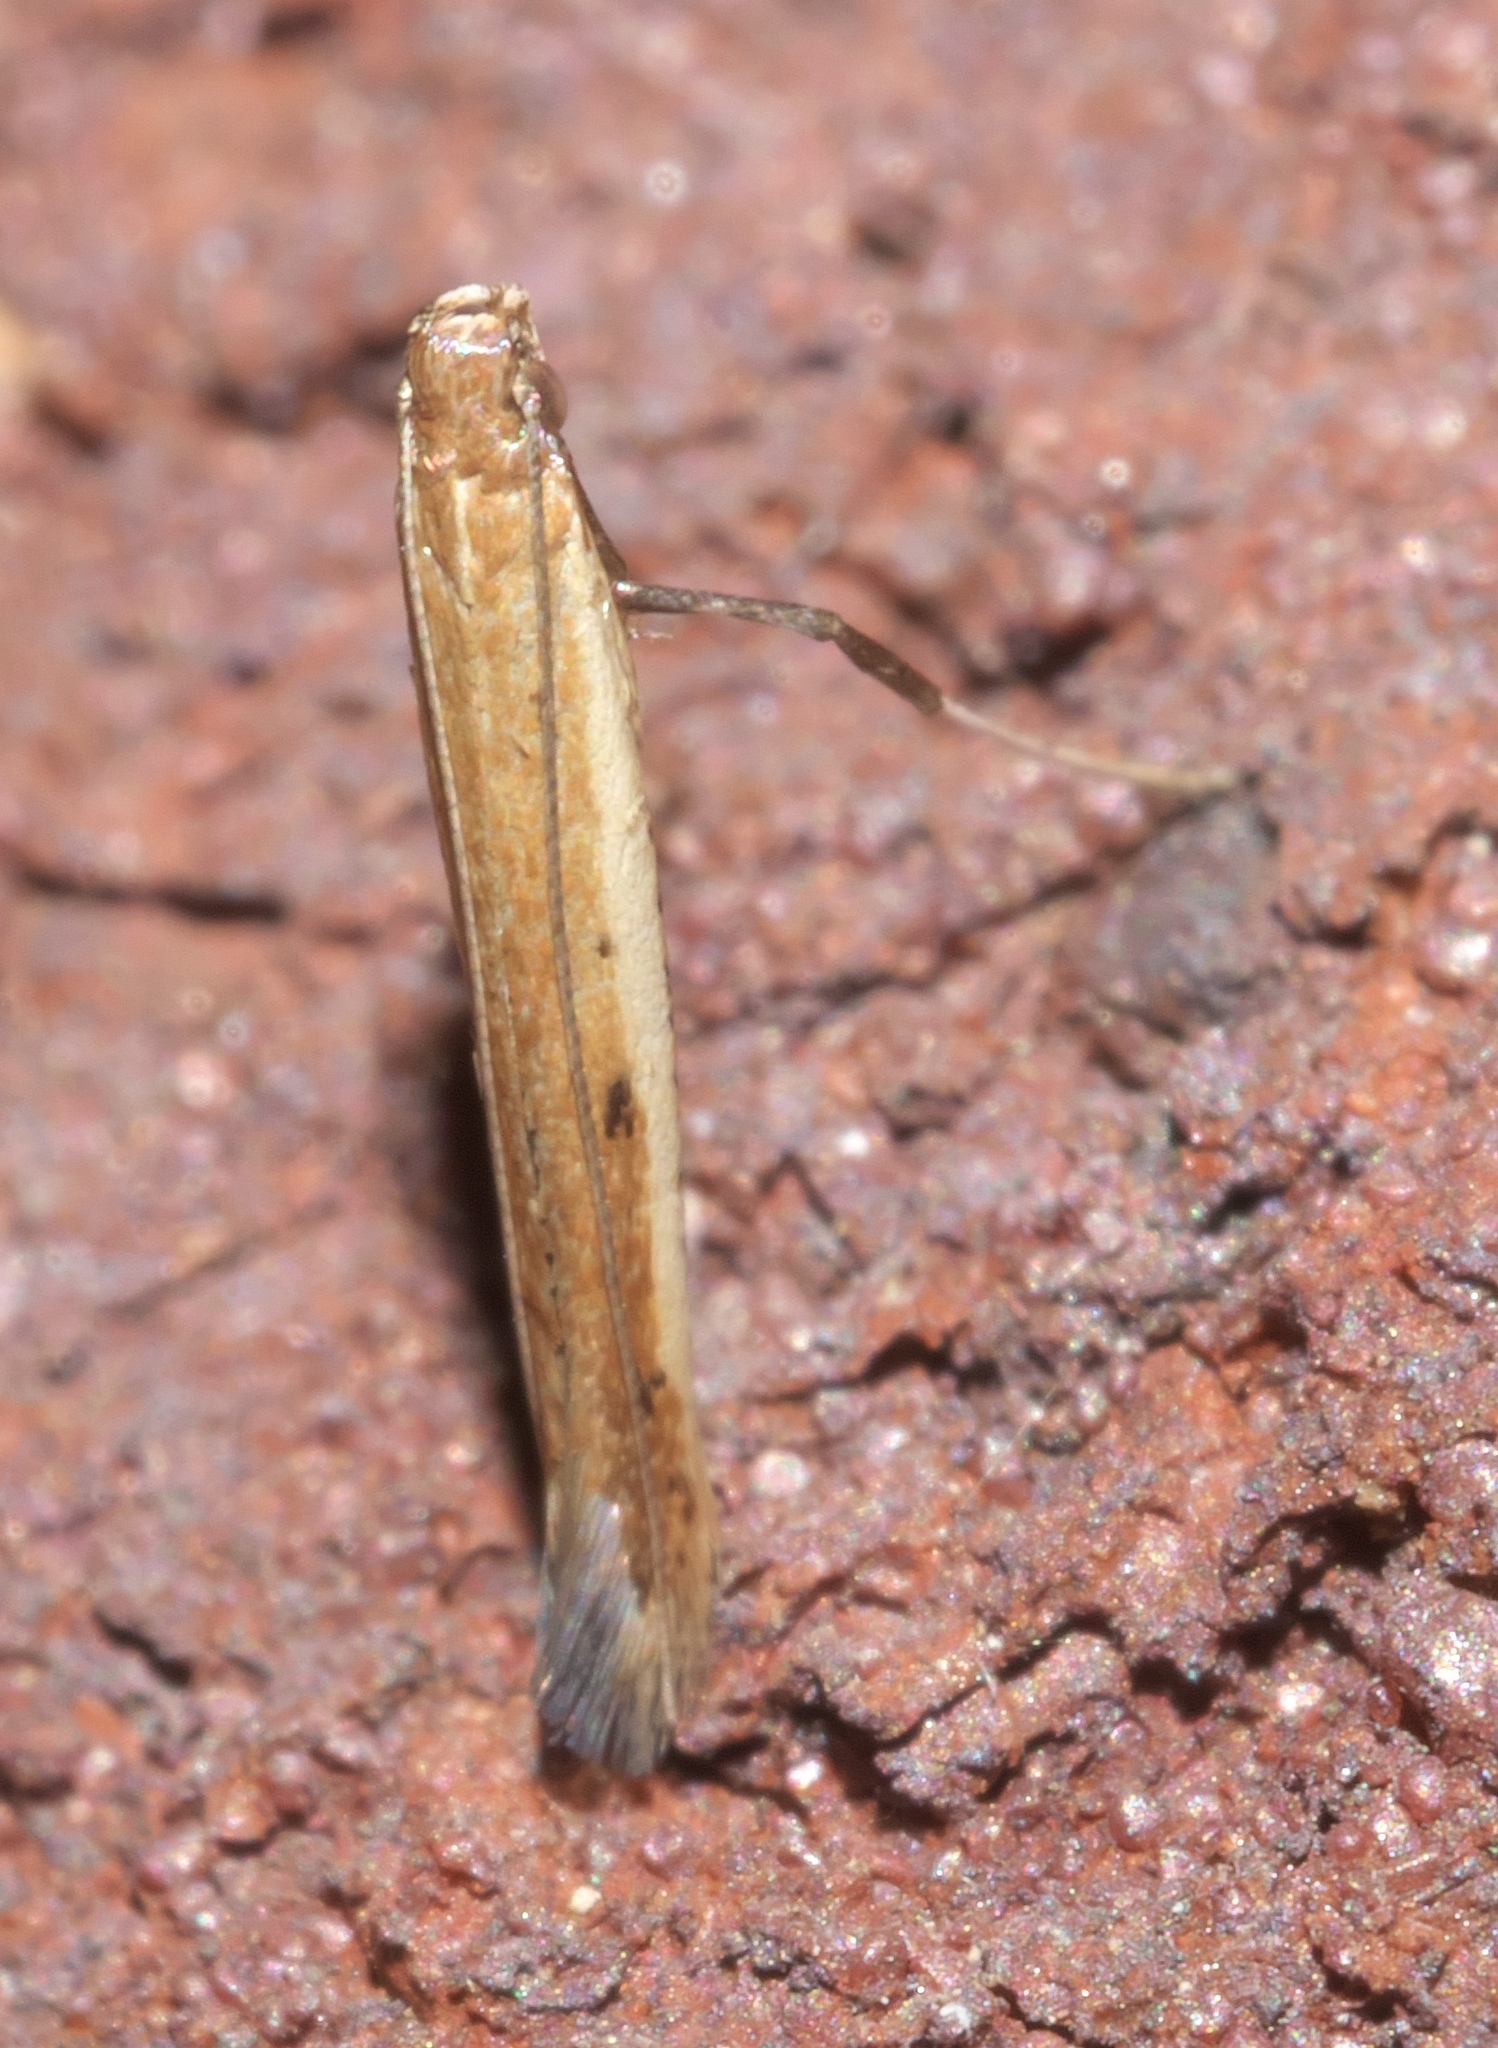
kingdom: Animalia
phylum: Arthropoda
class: Insecta
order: Lepidoptera
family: Gracillariidae
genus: Caloptilia
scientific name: Caloptilia violacella
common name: Tick-trefoil caloptilia moth
